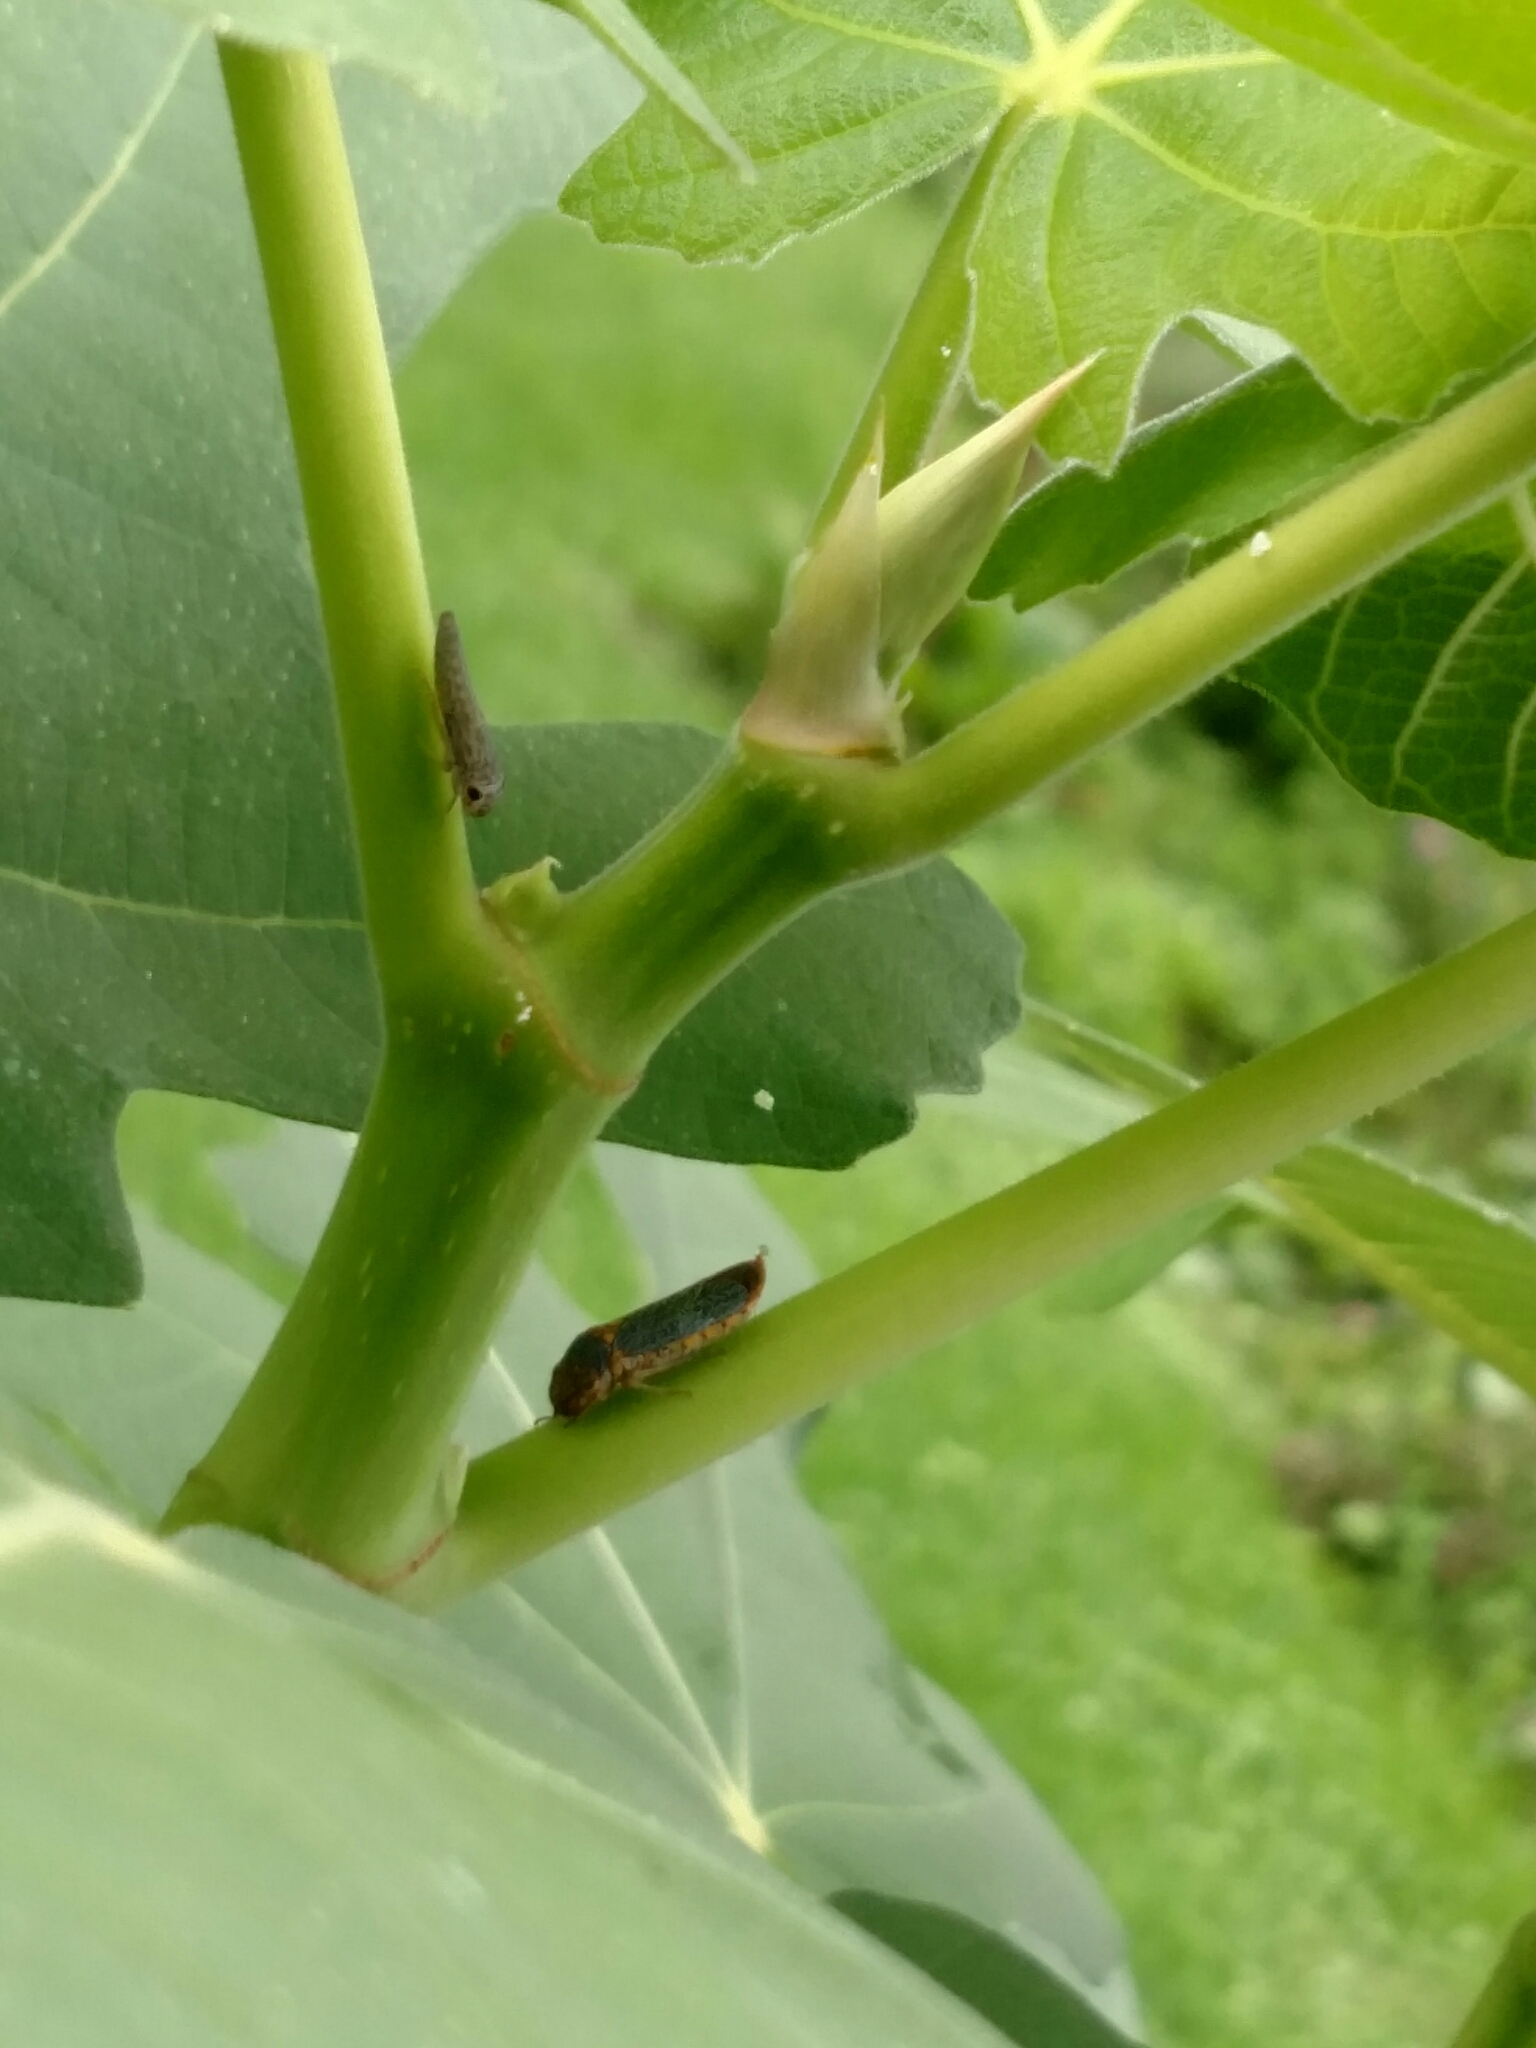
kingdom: Animalia
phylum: Arthropoda
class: Insecta
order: Hemiptera
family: Cicadellidae
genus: Oncometopia
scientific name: Oncometopia orbona
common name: Broad-headed sharpshooter
